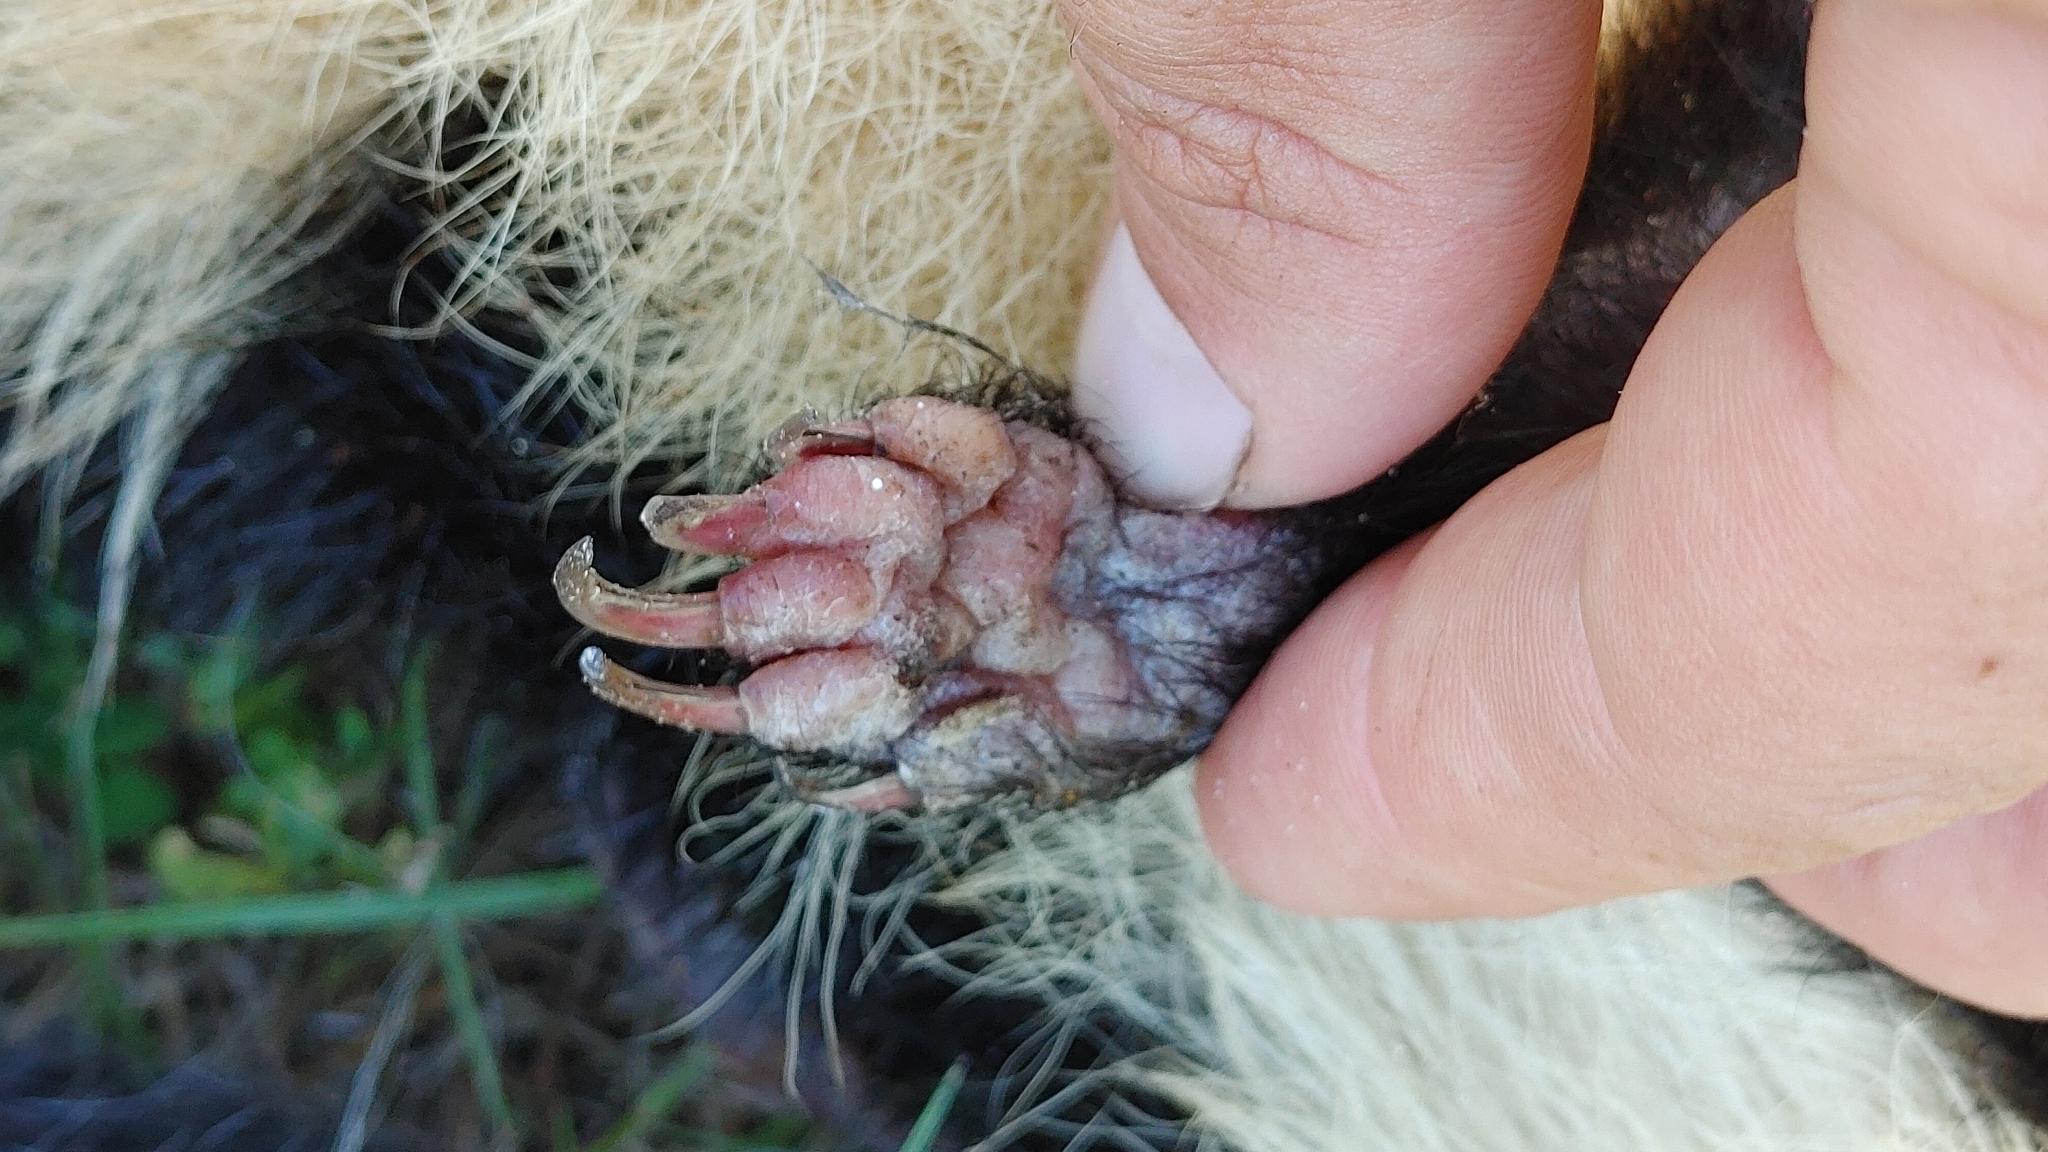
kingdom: Animalia
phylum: Chordata
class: Mammalia
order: Carnivora
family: Mephitidae
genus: Mephitis
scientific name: Mephitis mephitis
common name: Striped skunk
